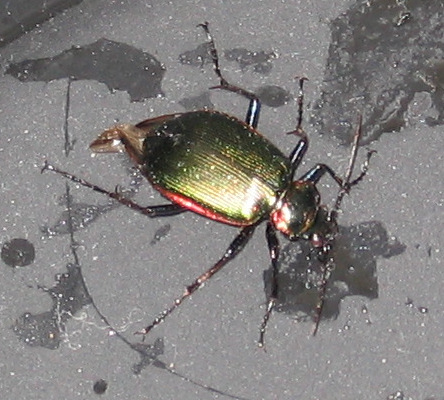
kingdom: Animalia
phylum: Arthropoda
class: Insecta
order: Coleoptera
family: Carabidae
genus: Calosoma
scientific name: Calosoma scrutator
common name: Fiery searcher beetle
